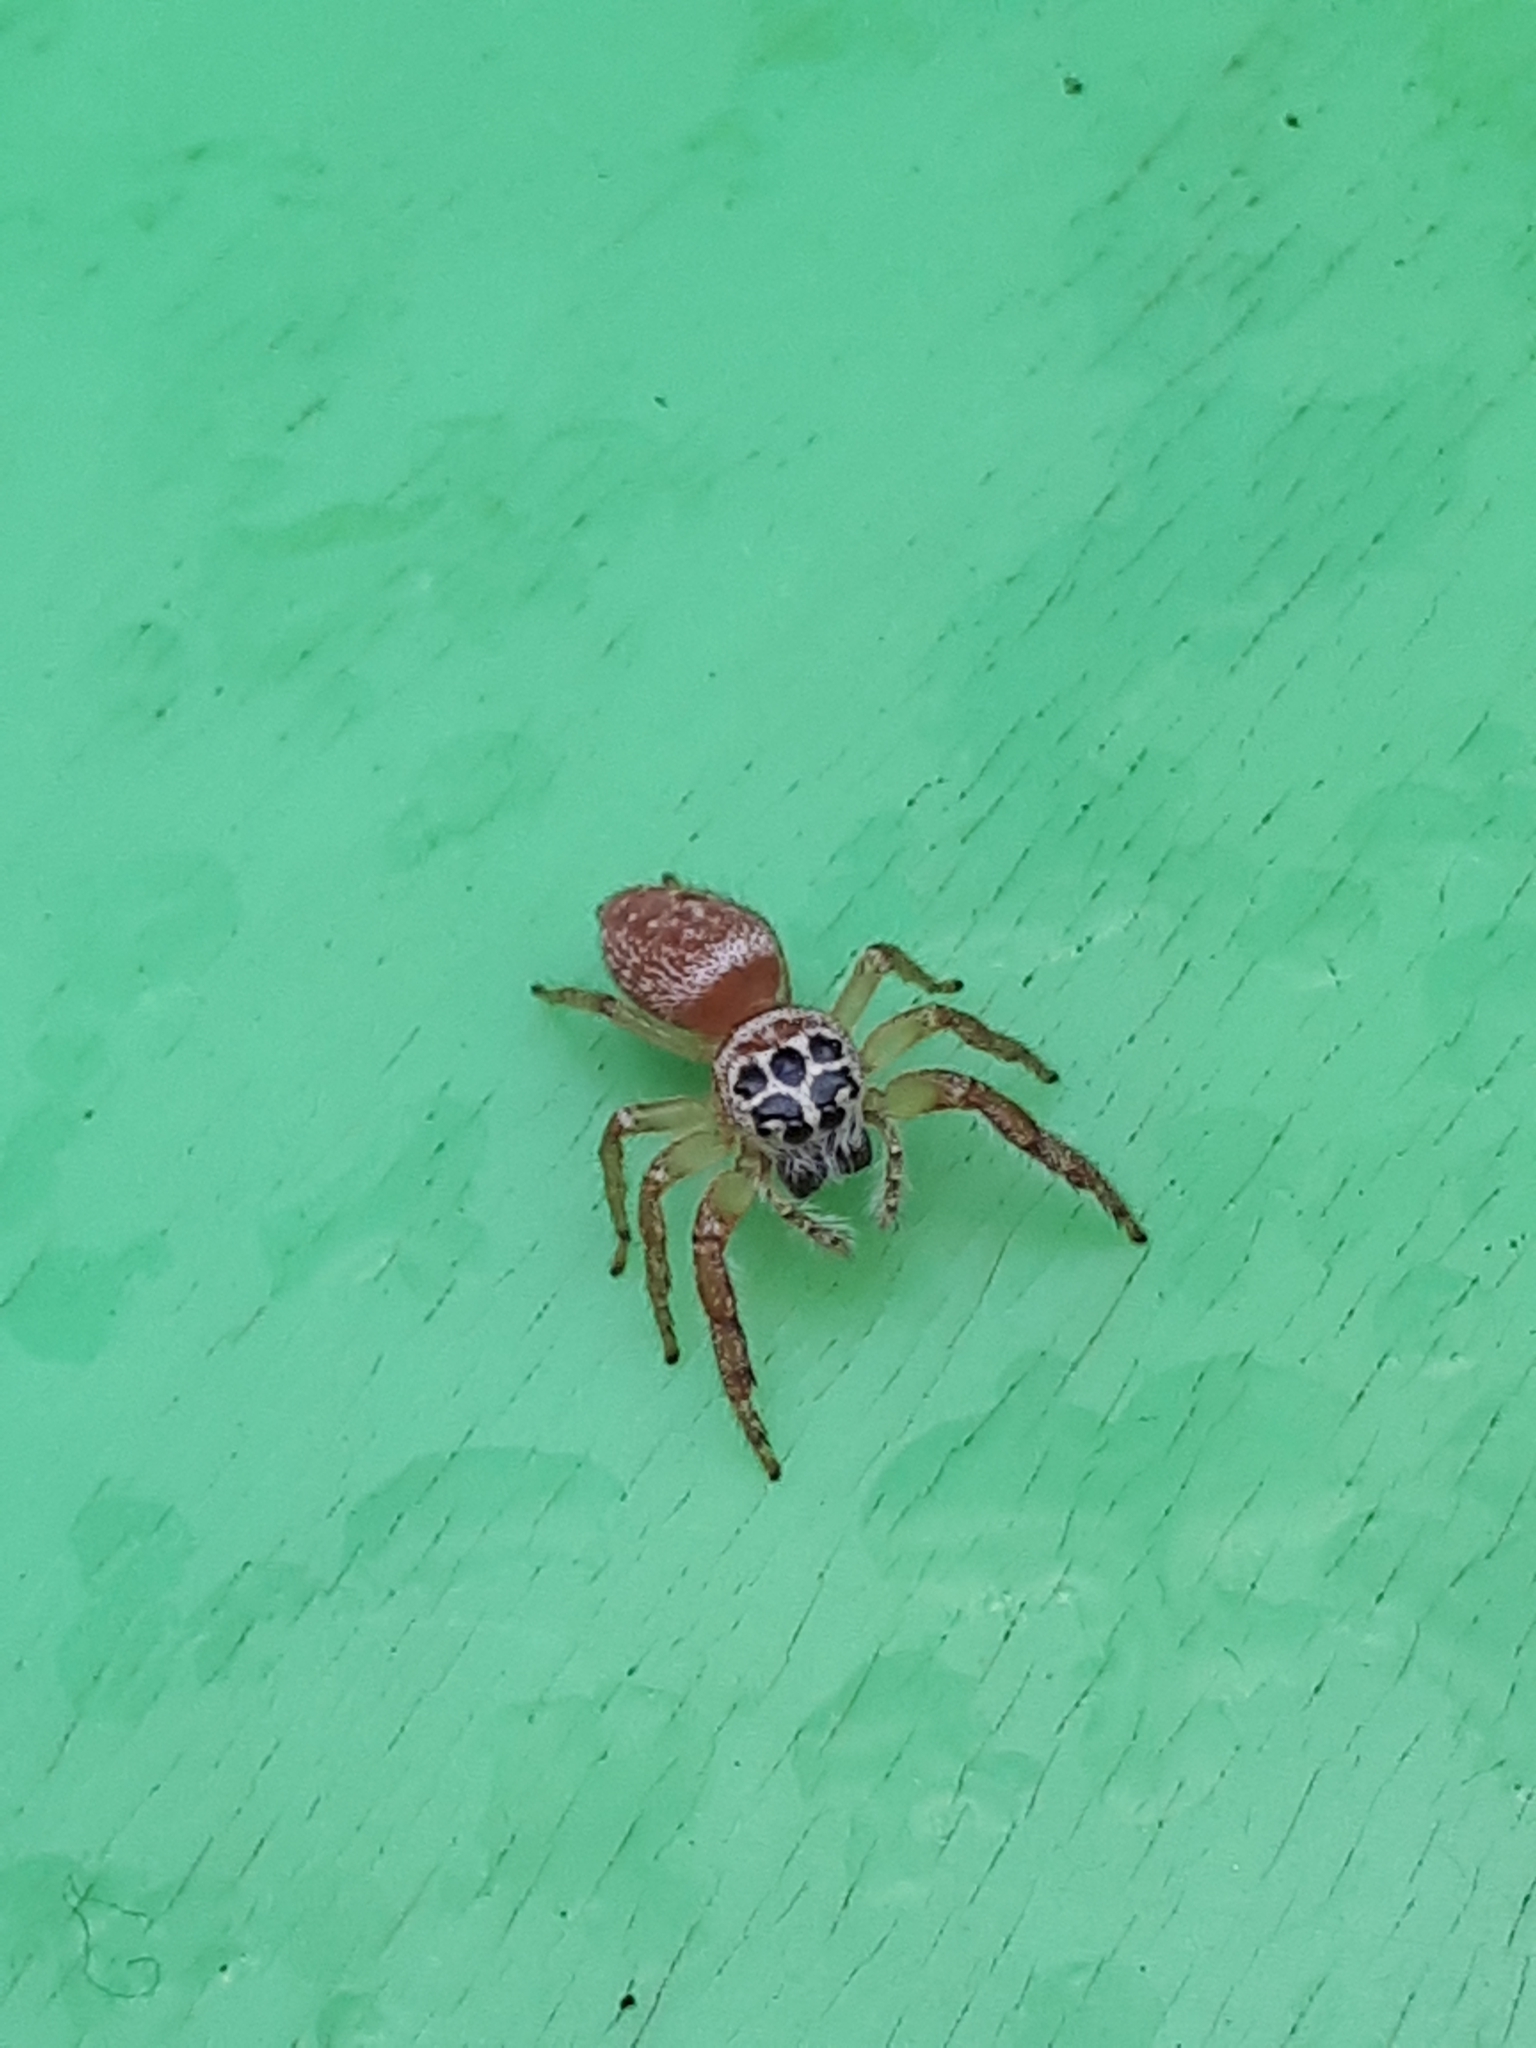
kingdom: Animalia
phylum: Arthropoda
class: Arachnida
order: Araneae
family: Salticidae
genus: Opisthoncus
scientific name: Opisthoncus polyphemus
